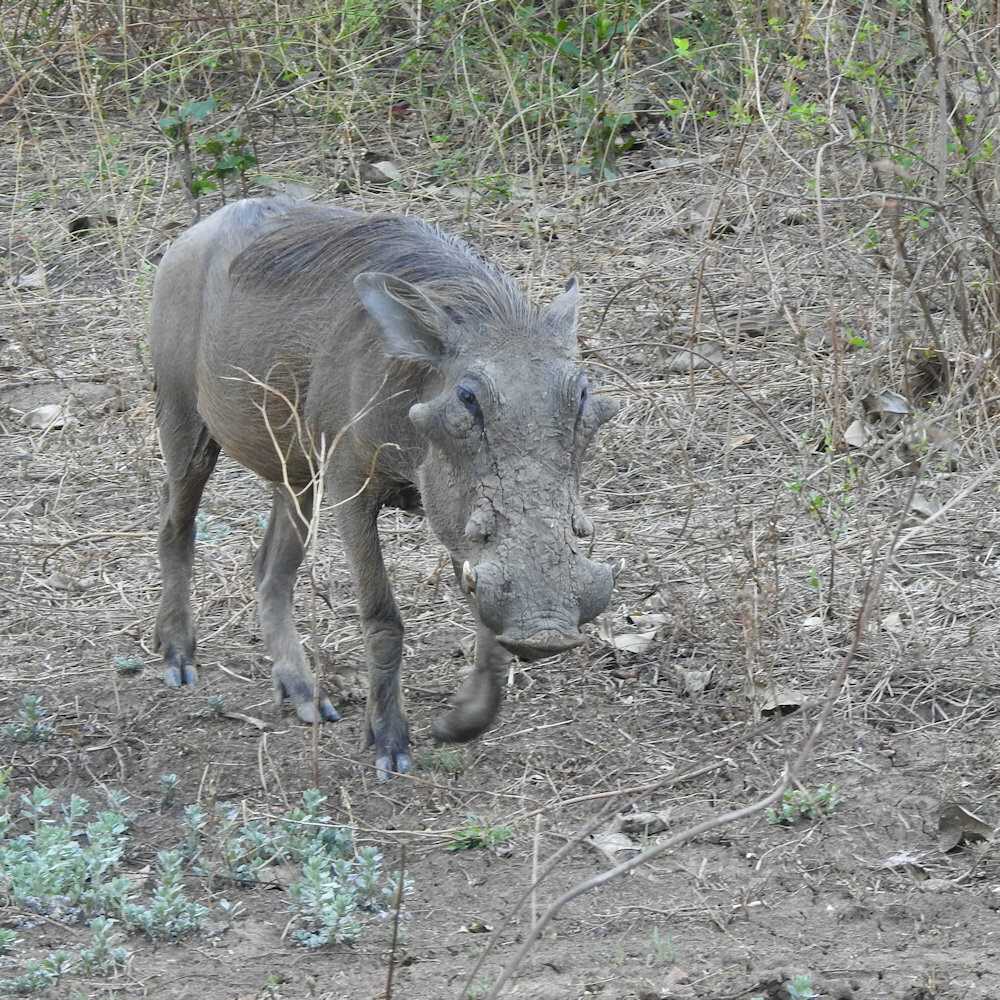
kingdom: Animalia
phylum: Chordata
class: Mammalia
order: Artiodactyla
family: Suidae
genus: Phacochoerus
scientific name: Phacochoerus africanus
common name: Common warthog
